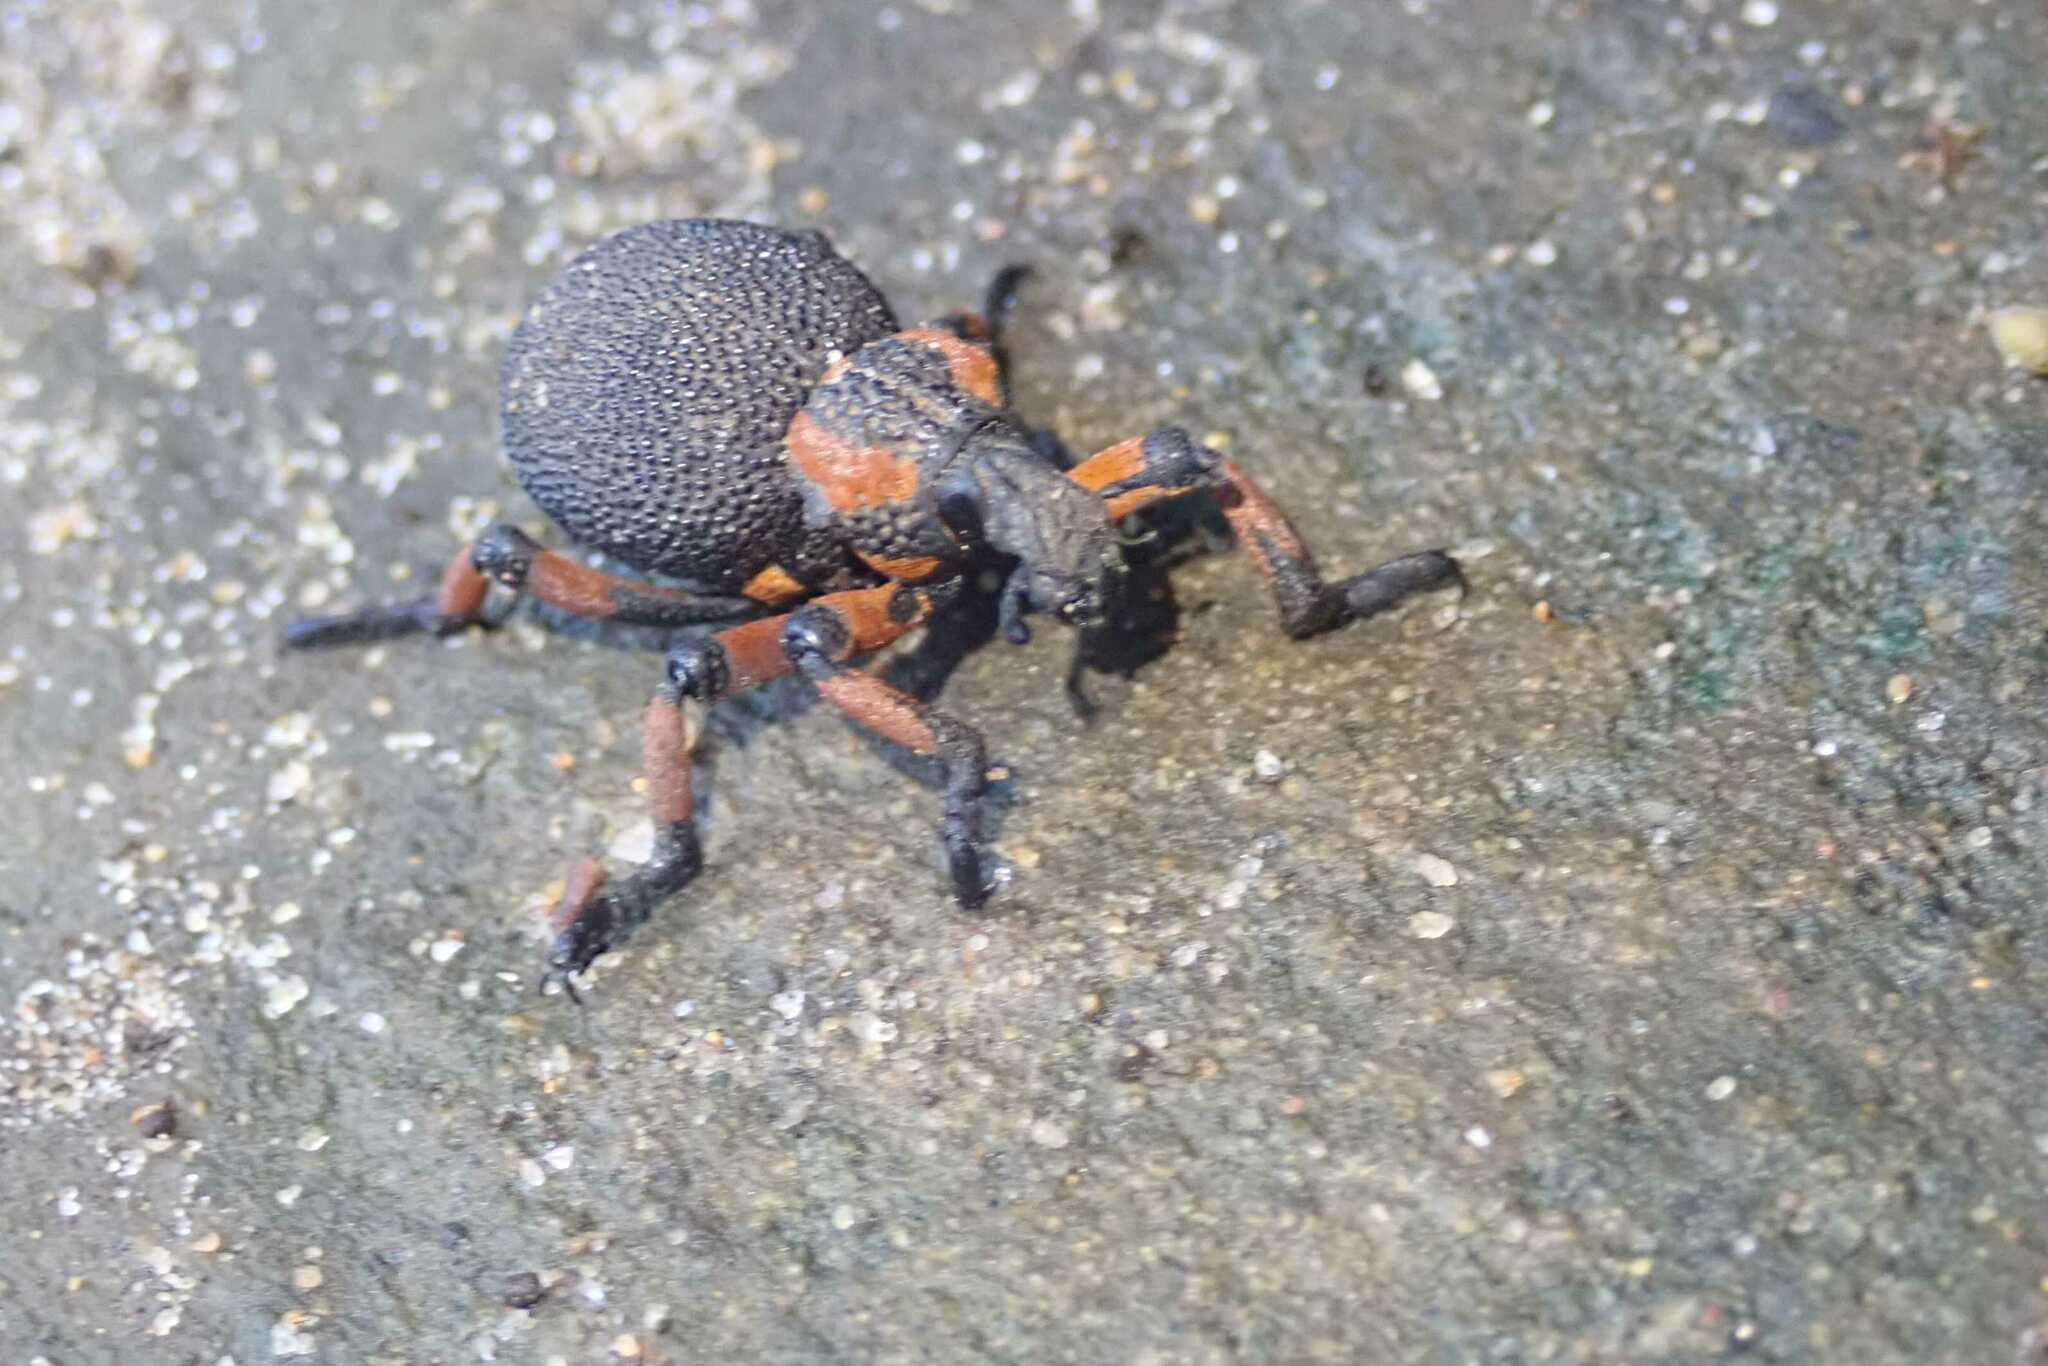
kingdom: Animalia
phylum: Arthropoda
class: Insecta
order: Coleoptera
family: Brachyceridae
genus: Brachycerus
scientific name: Brachycerus congestus
